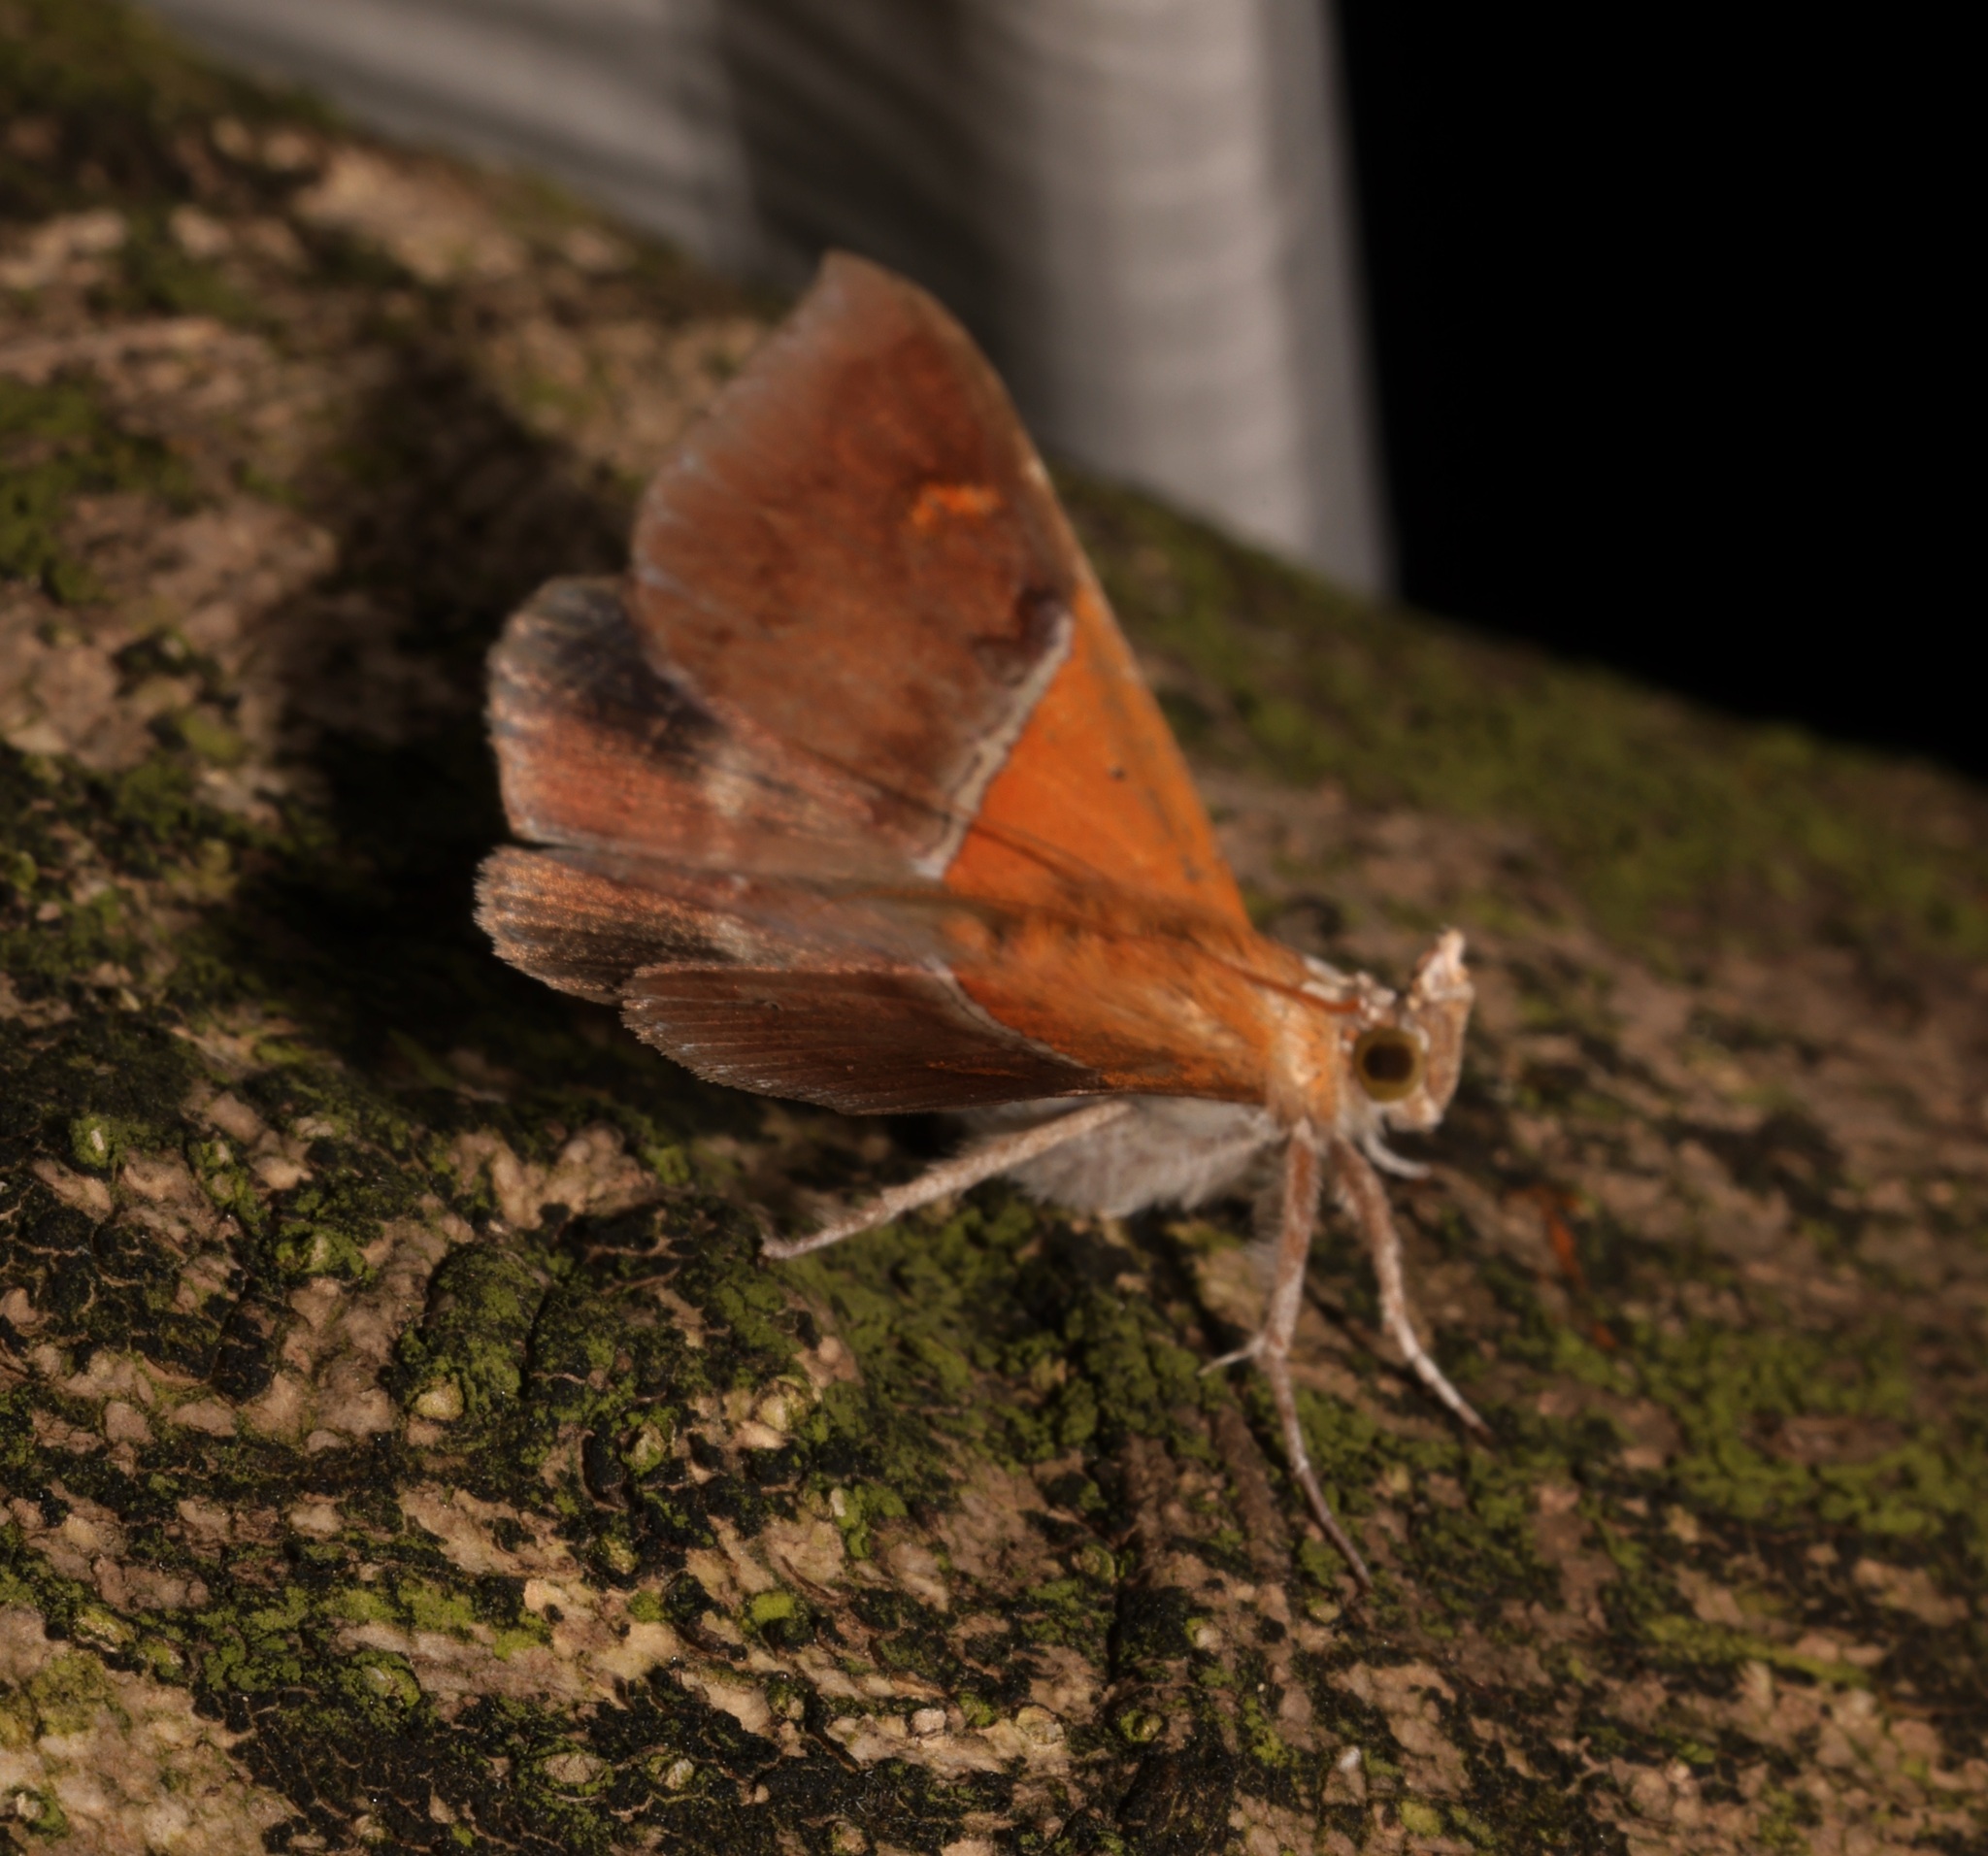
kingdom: Animalia
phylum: Arthropoda
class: Insecta
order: Lepidoptera
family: Erebidae
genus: Sympis
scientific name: Sympis rufibasis
